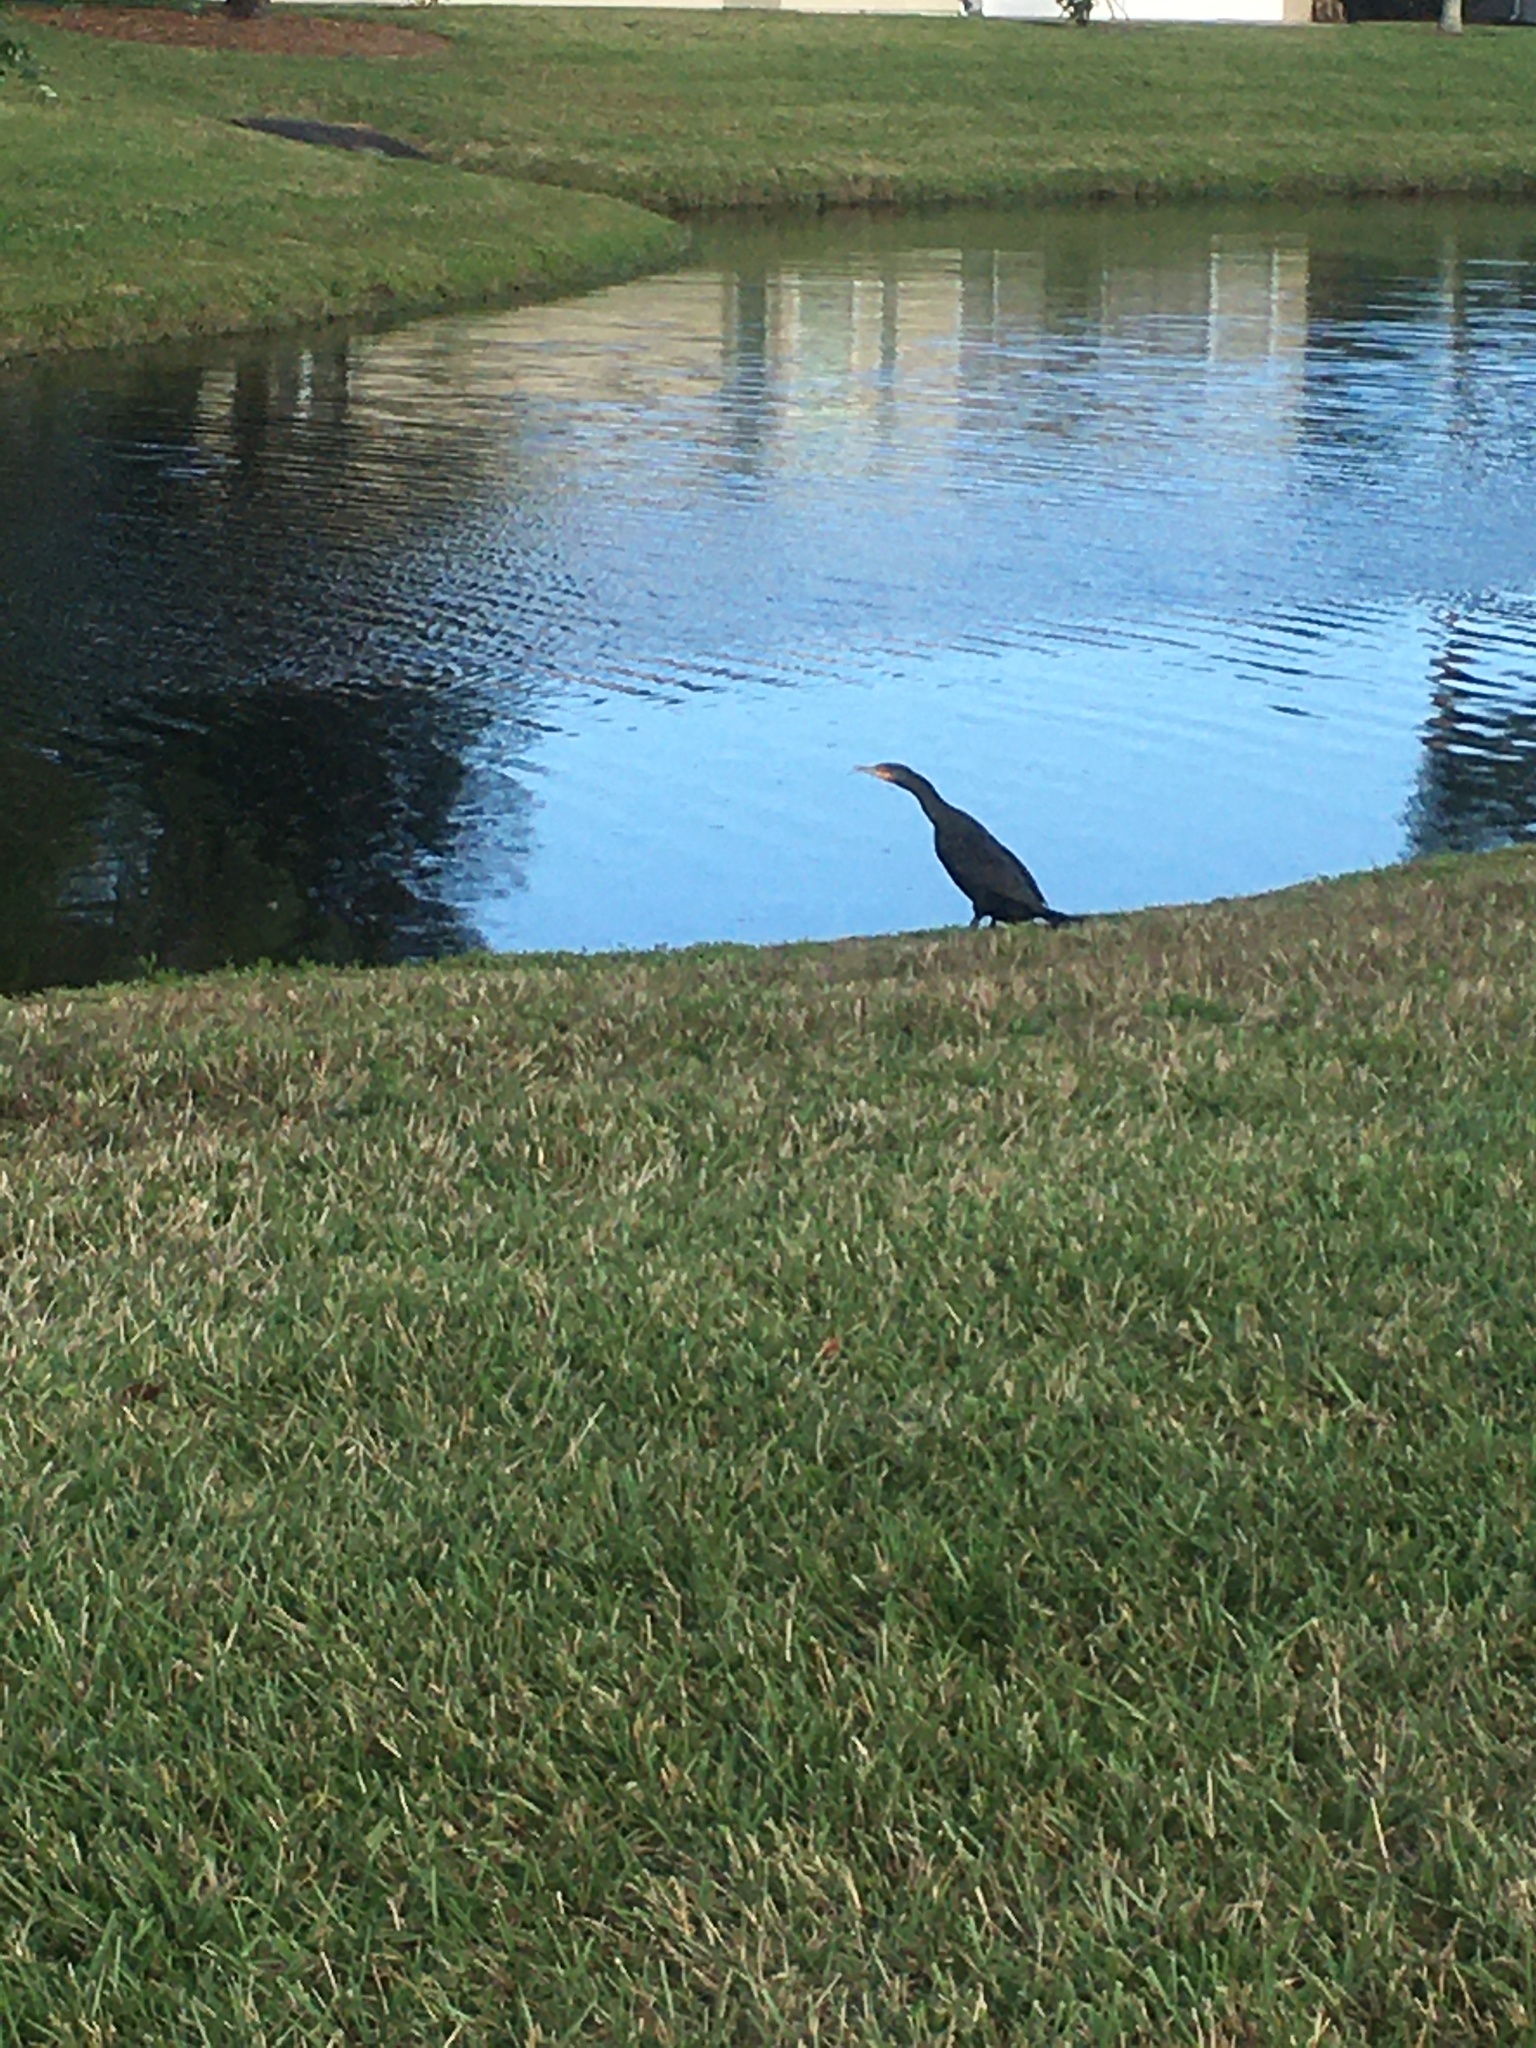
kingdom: Animalia
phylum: Chordata
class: Aves
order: Suliformes
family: Phalacrocoracidae
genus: Phalacrocorax
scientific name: Phalacrocorax auritus
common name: Double-crested cormorant
